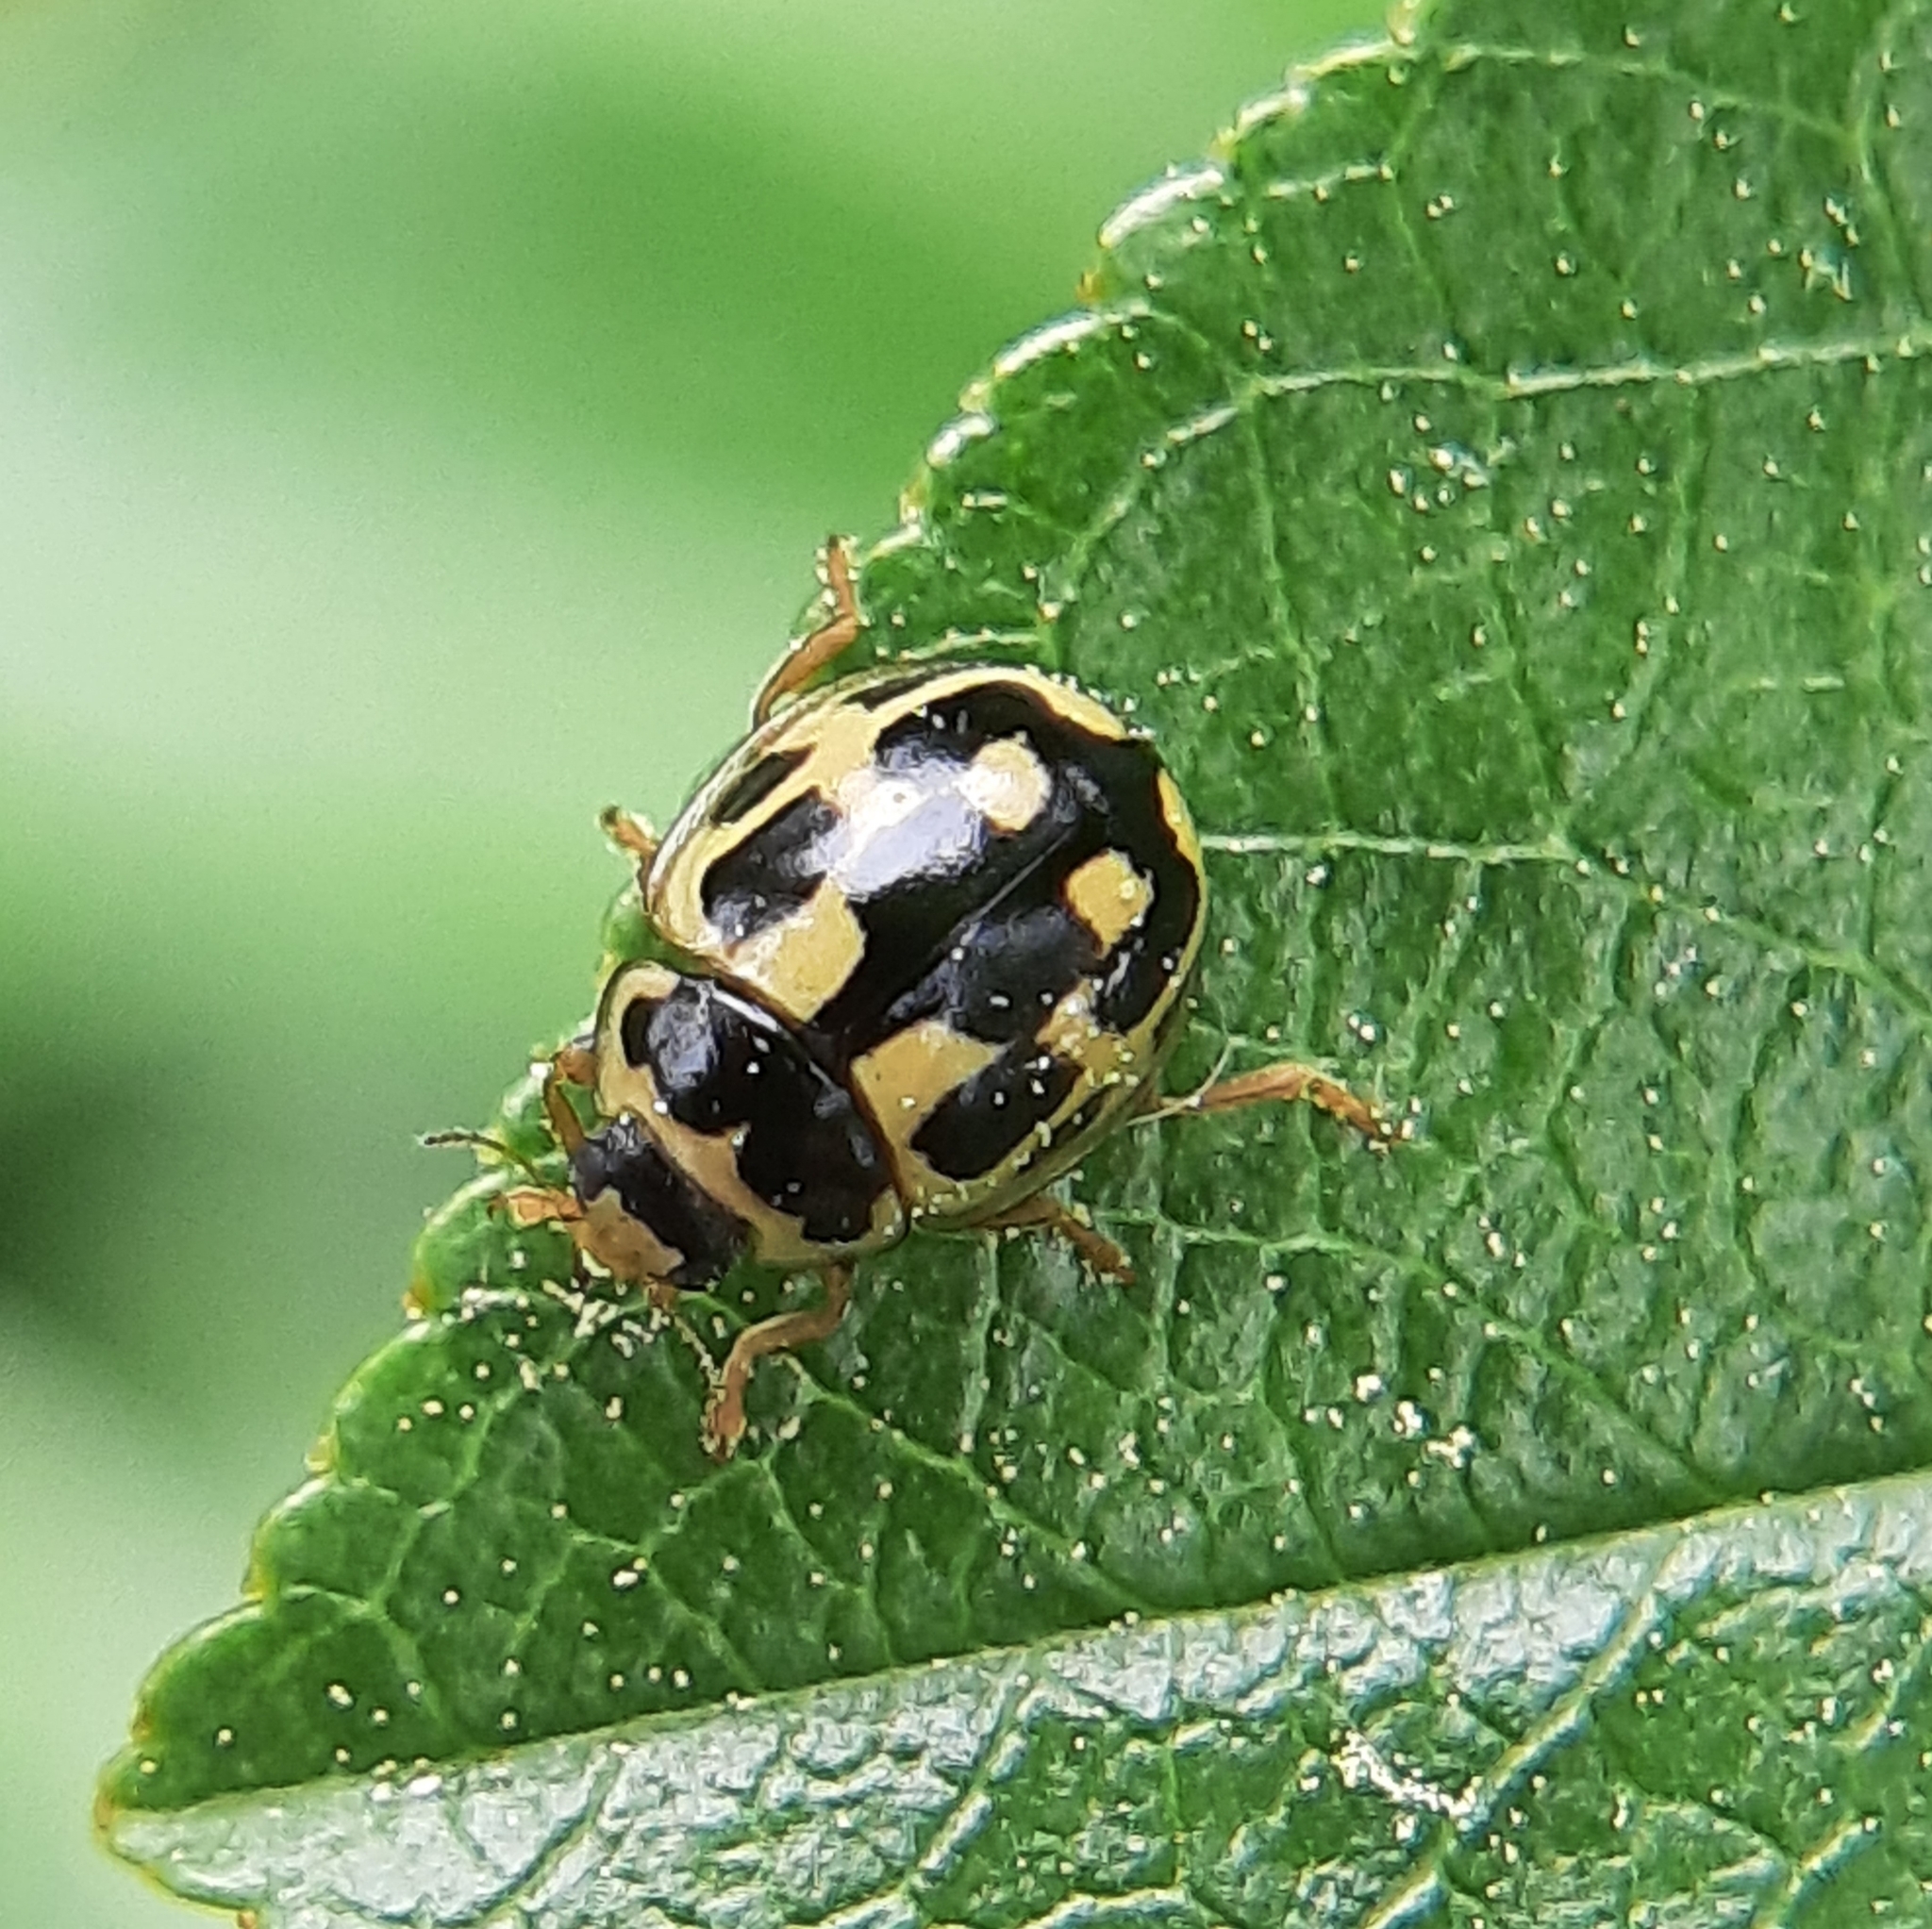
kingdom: Animalia
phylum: Arthropoda
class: Insecta
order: Coleoptera
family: Coccinellidae
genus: Propylaea
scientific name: Propylaea quatuordecimpunctata
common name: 14-spotted ladybird beetle
